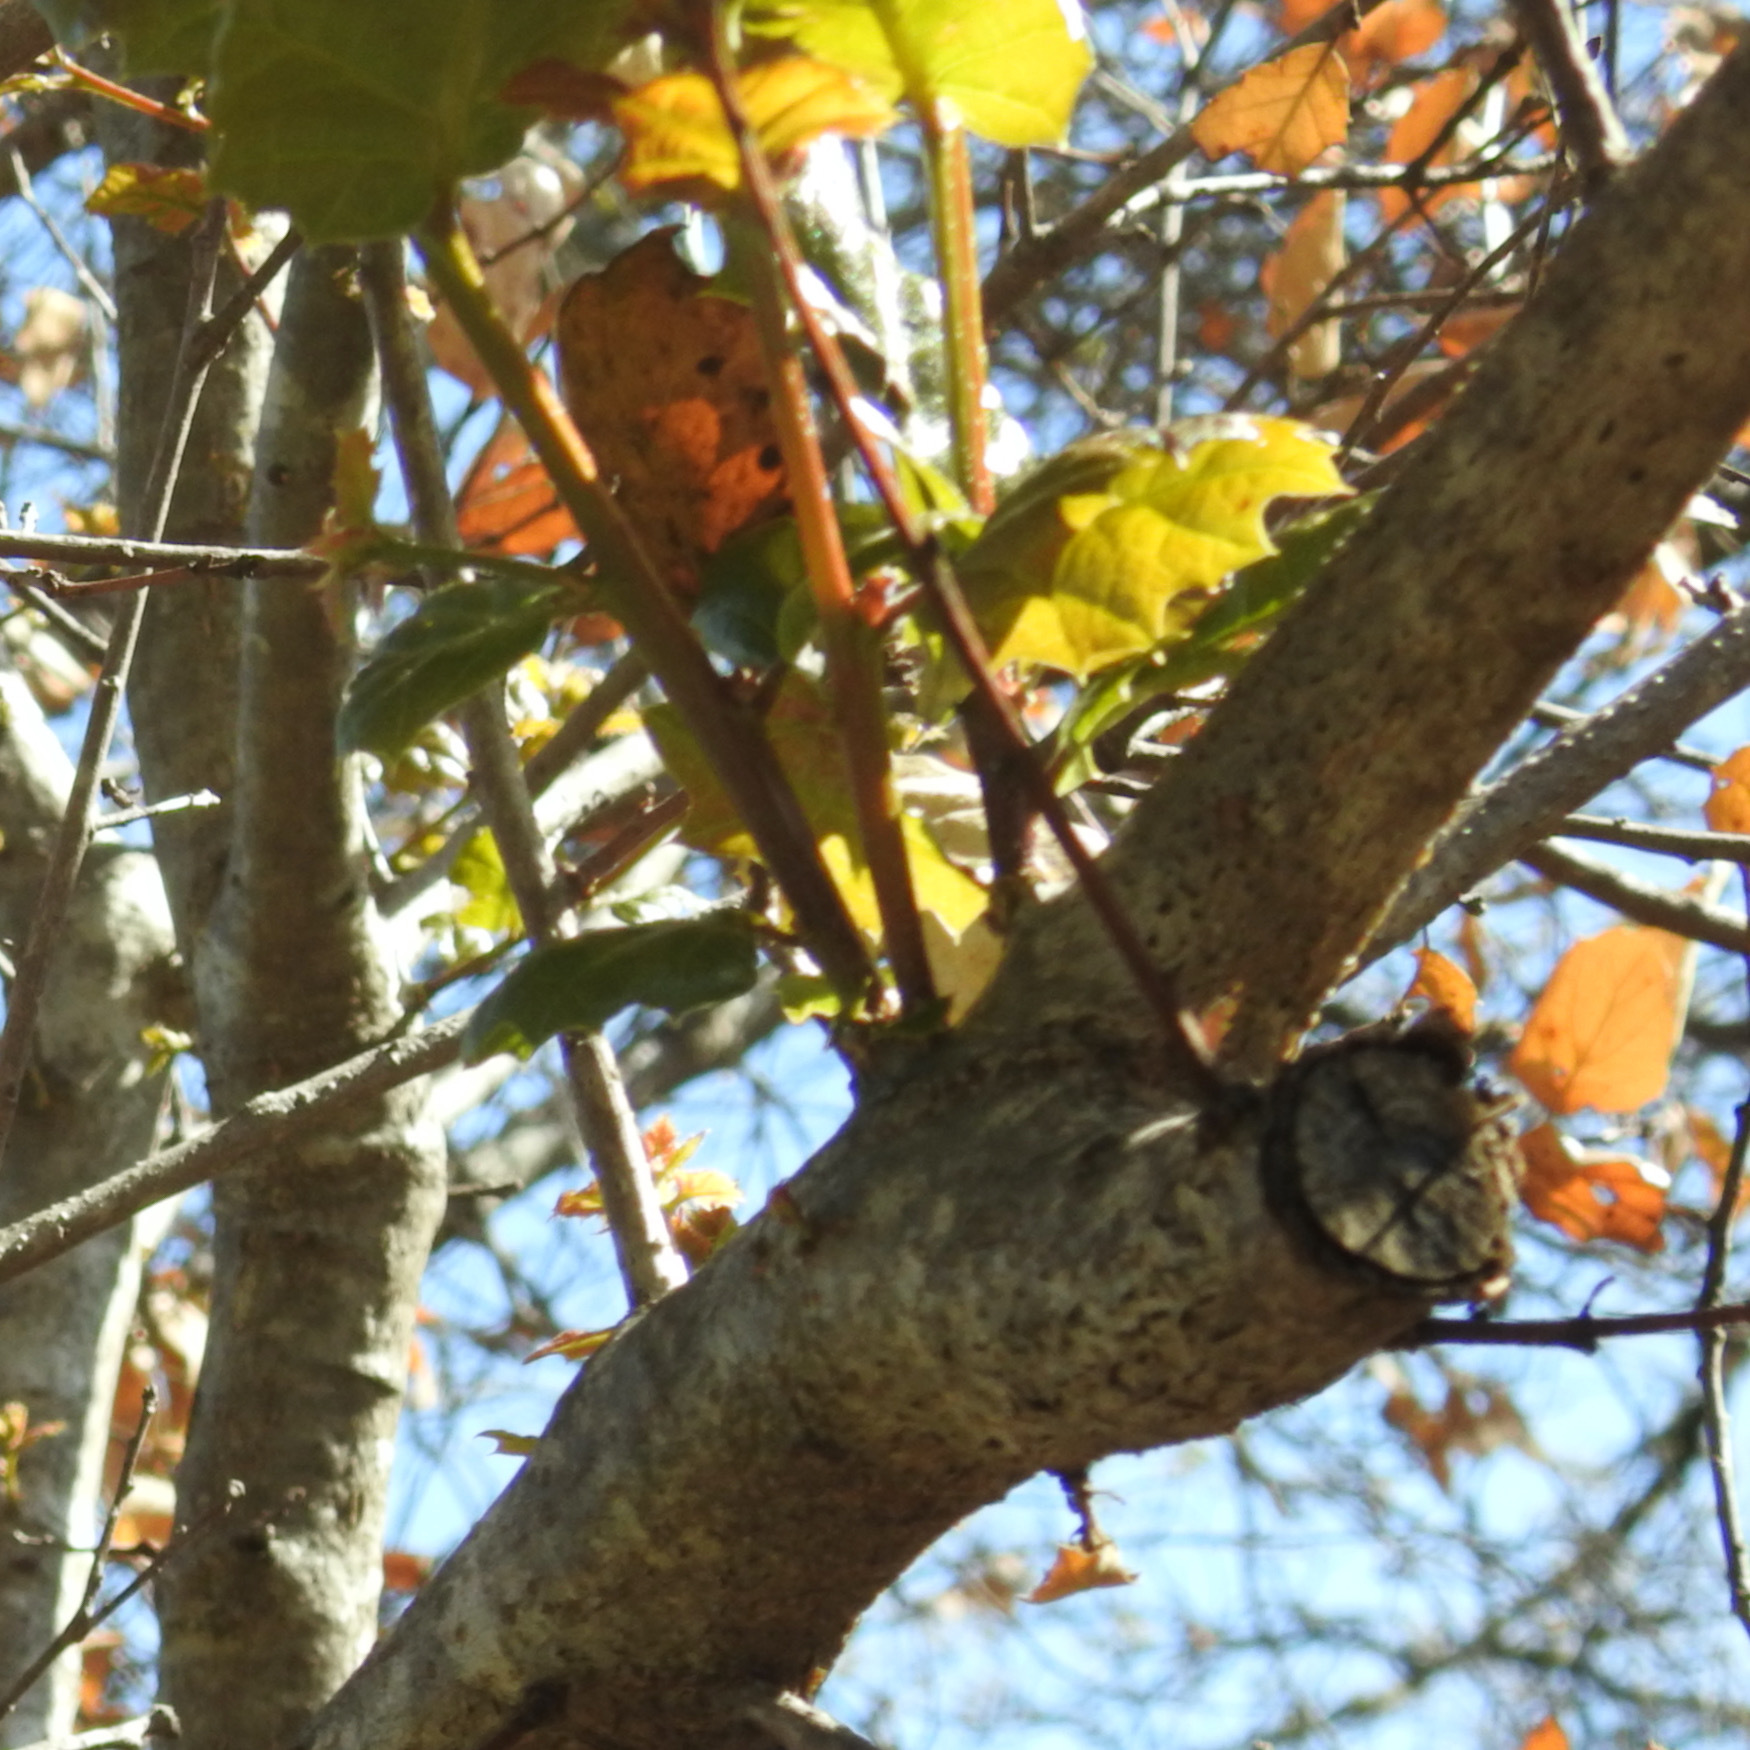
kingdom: Plantae
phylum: Tracheophyta
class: Magnoliopsida
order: Fagales
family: Fagaceae
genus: Quercus
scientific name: Quercus agrifolia
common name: California live oak
